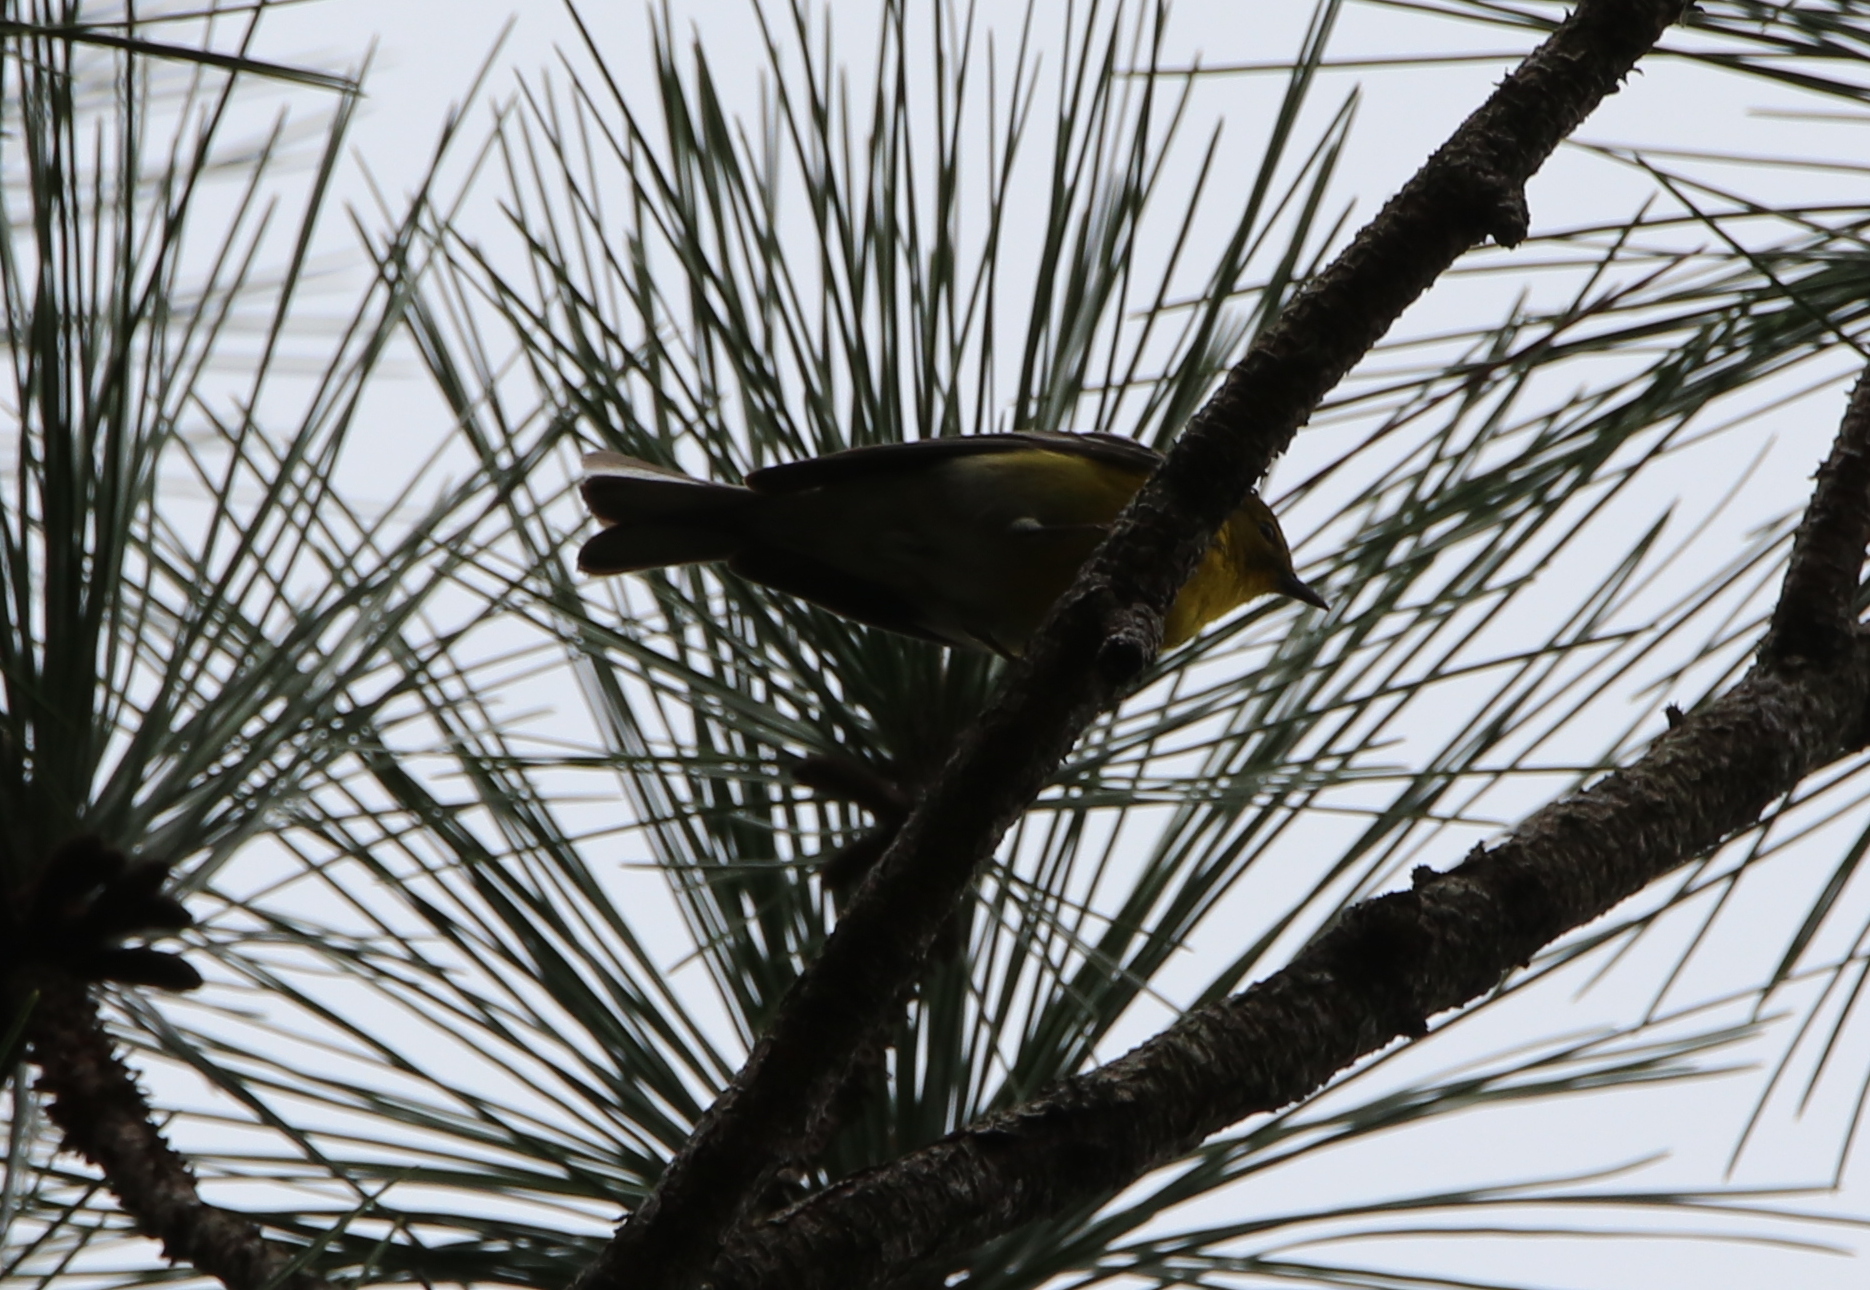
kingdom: Animalia
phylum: Chordata
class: Aves
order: Passeriformes
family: Parulidae
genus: Setophaga
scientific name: Setophaga pinus
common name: Pine warbler
